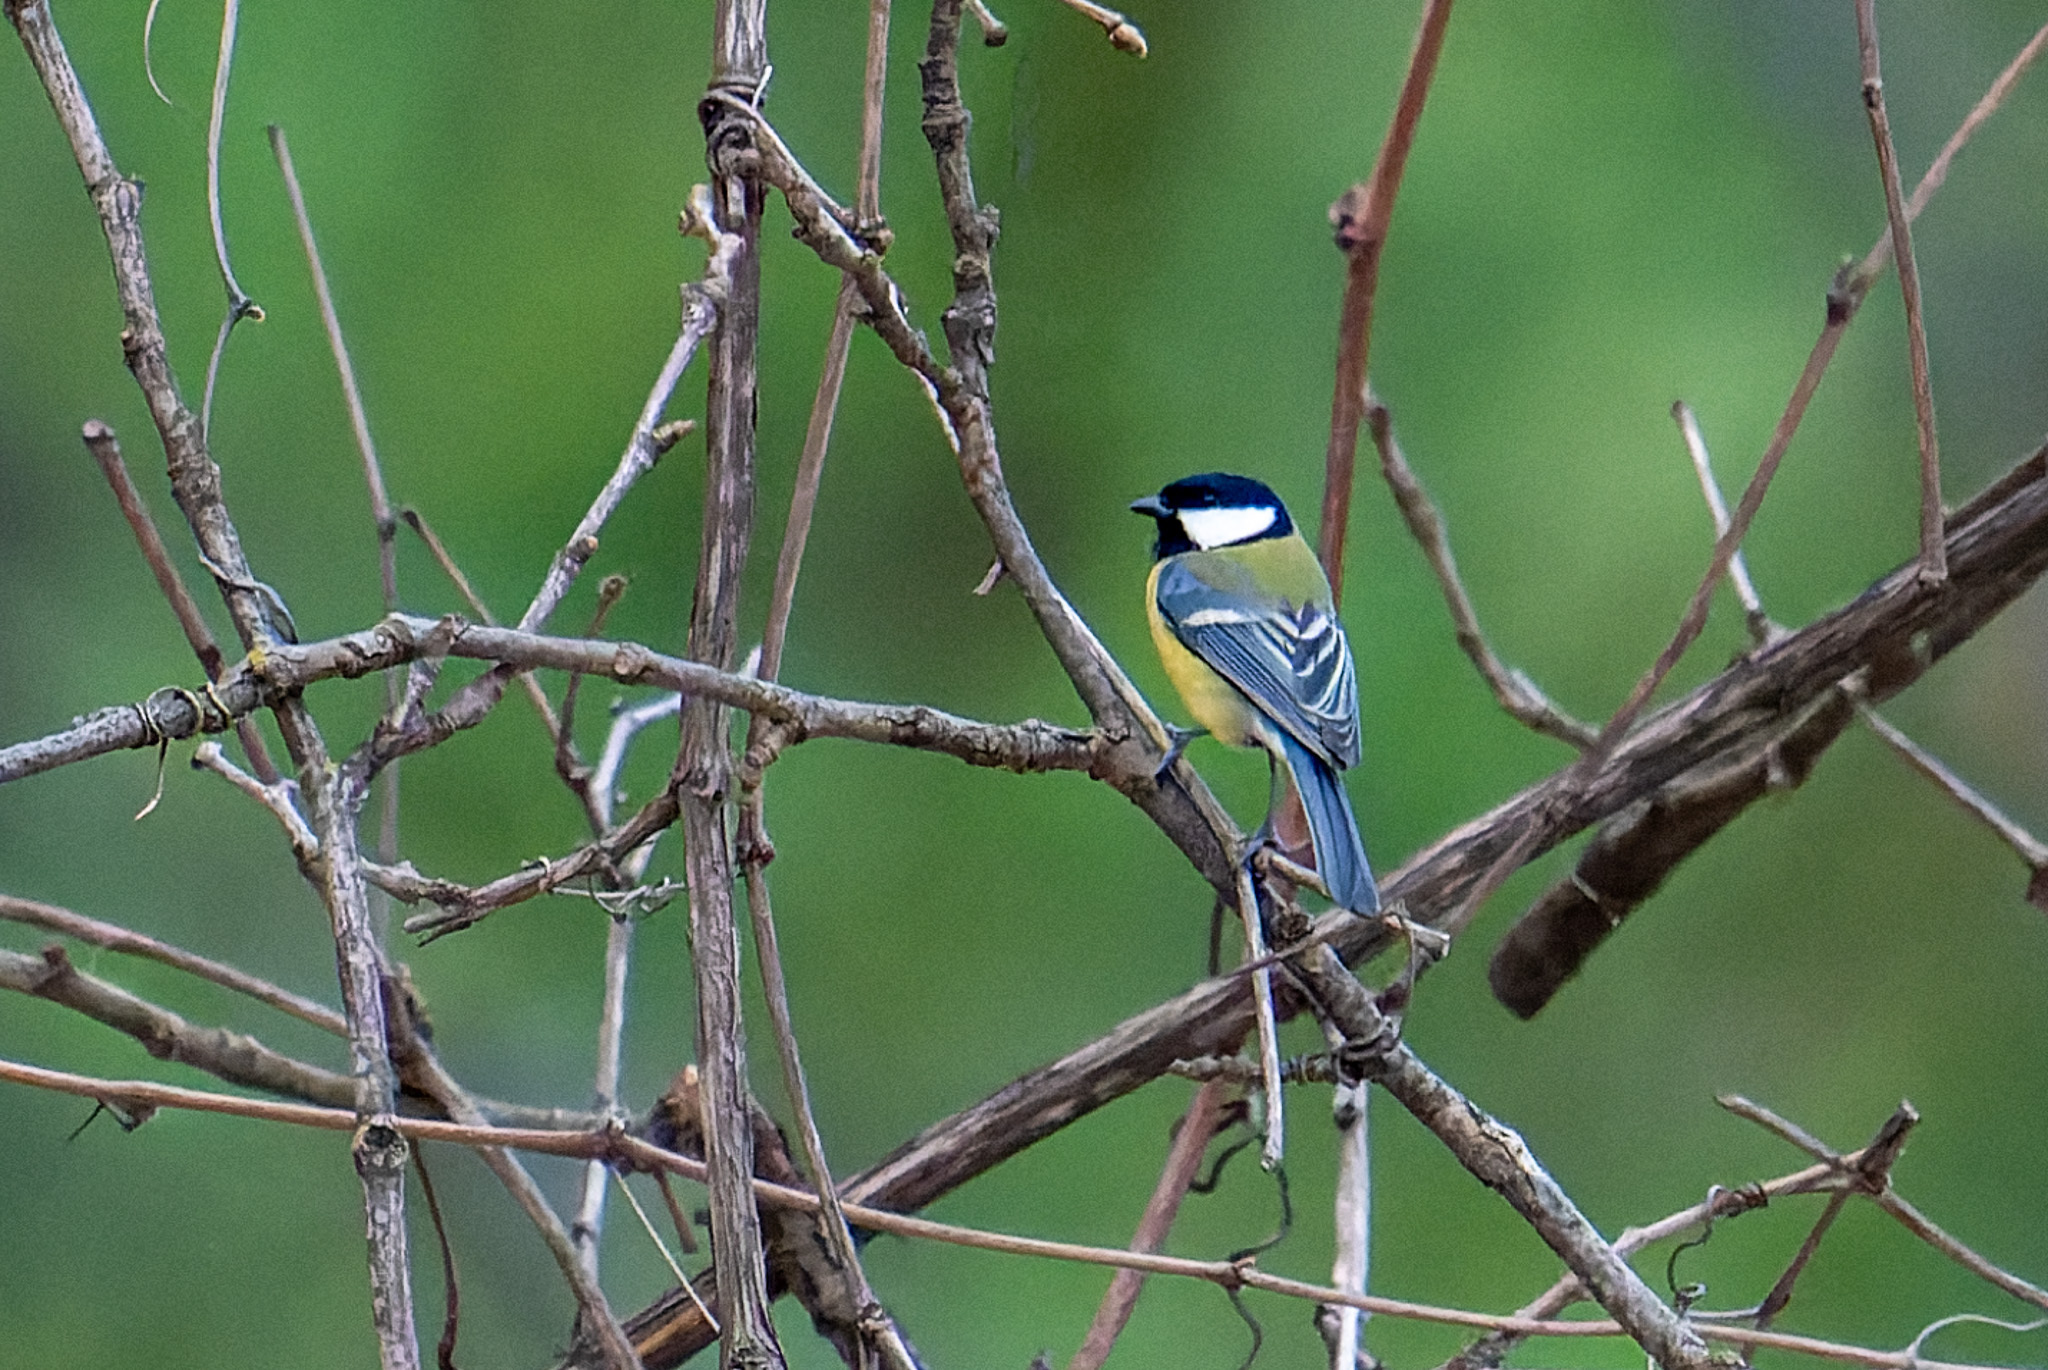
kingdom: Animalia
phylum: Chordata
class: Aves
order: Passeriformes
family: Paridae
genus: Parus
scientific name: Parus major
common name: Great tit
